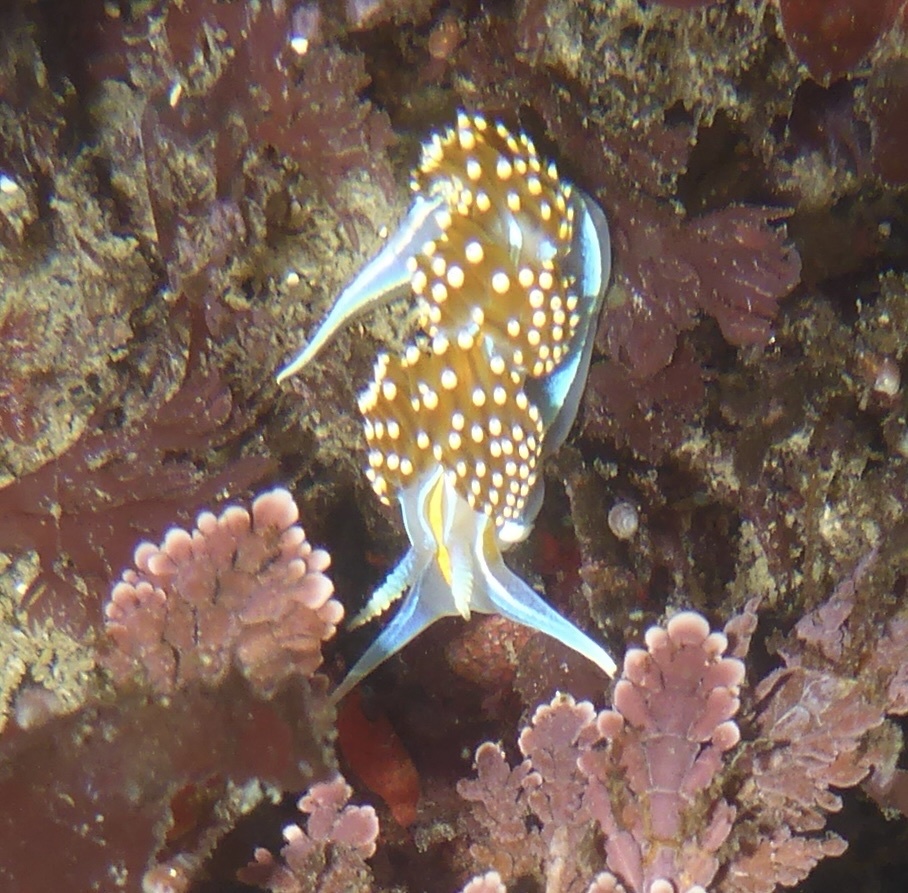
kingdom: Animalia
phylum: Mollusca
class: Gastropoda
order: Nudibranchia
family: Myrrhinidae
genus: Hermissenda
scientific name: Hermissenda opalescens
